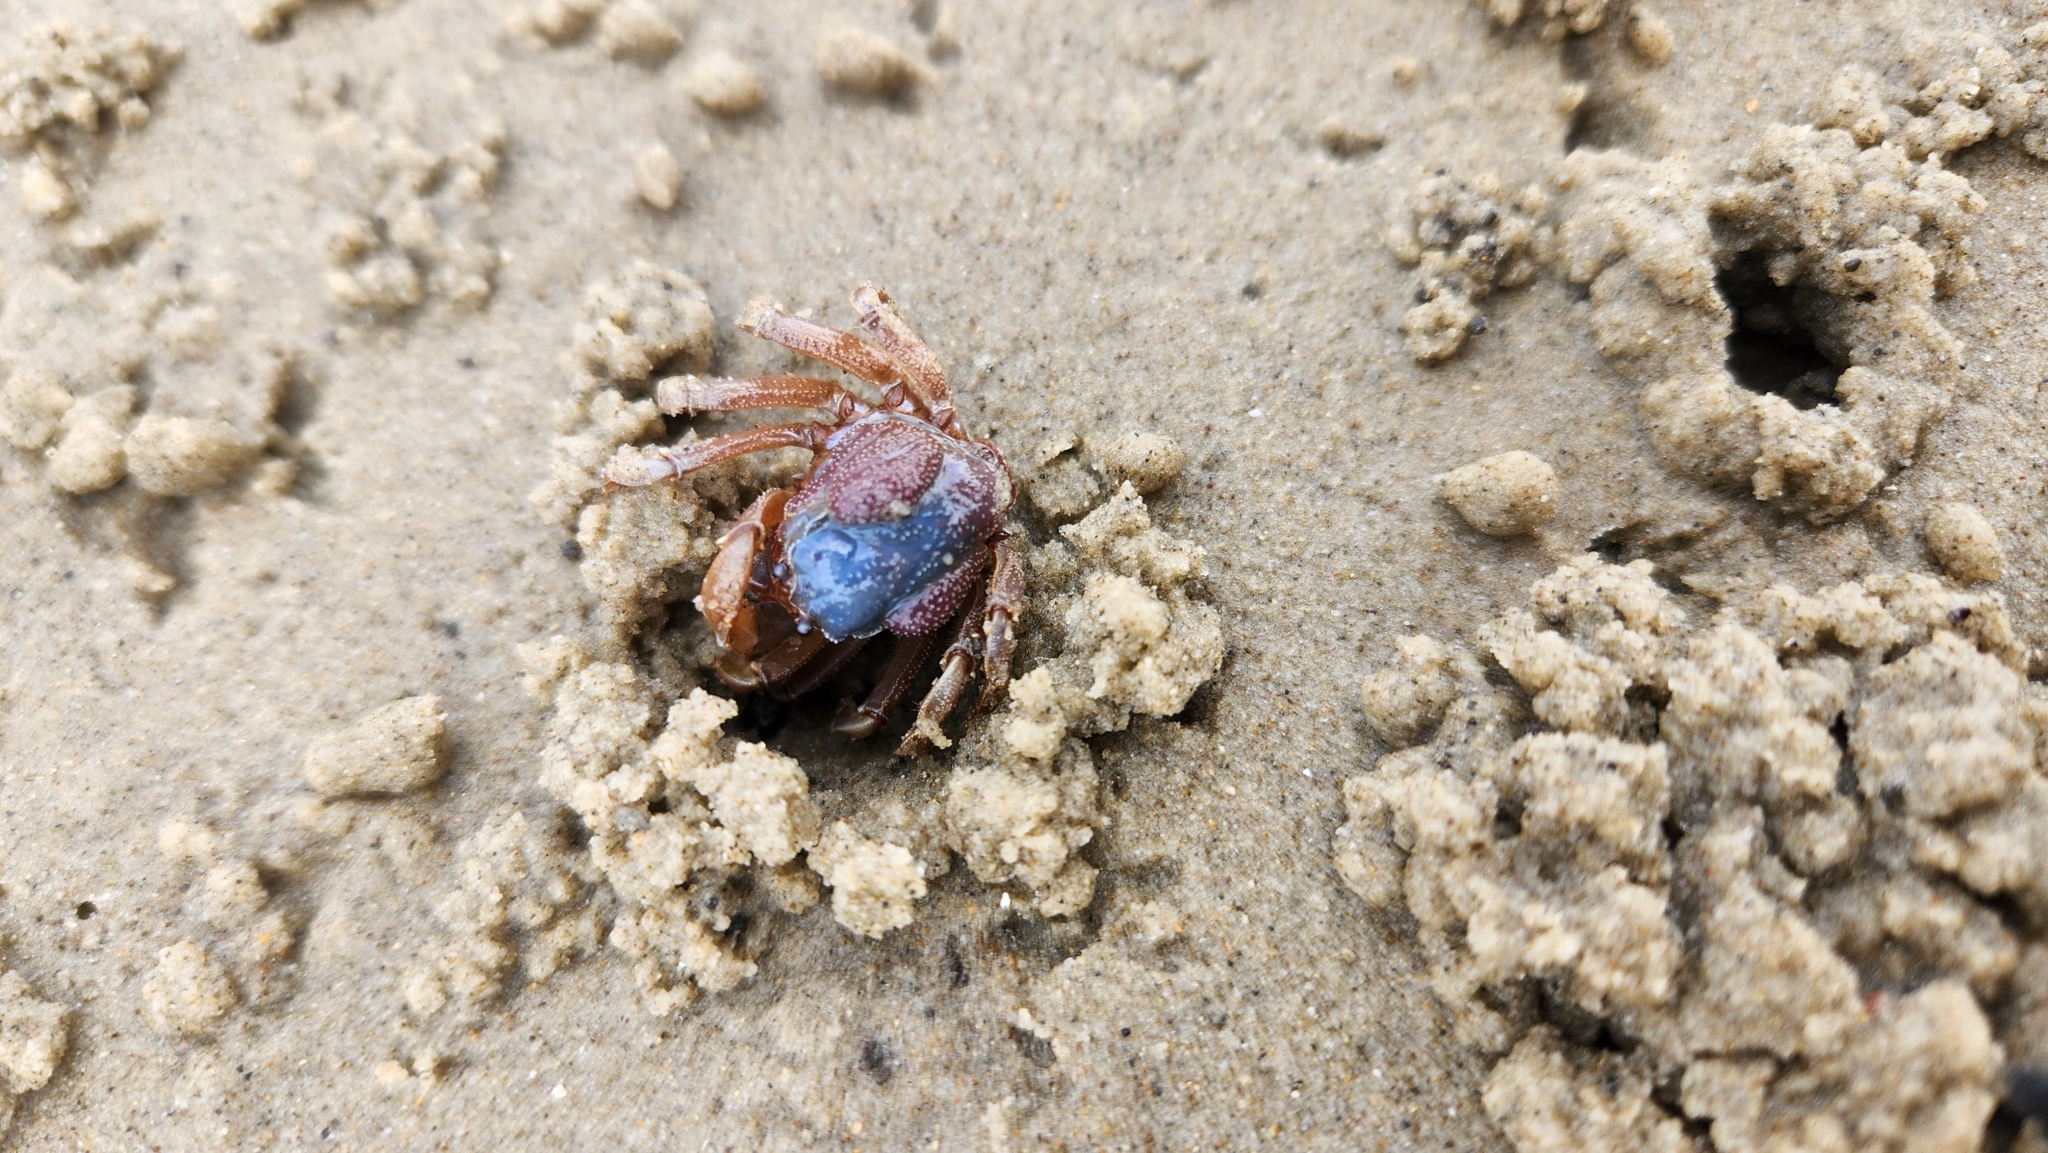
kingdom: Animalia
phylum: Arthropoda
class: Malacostraca
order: Decapoda
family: Mictyridae
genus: Mictyris
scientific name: Mictyris platycheles
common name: Dark blue soldier crab
